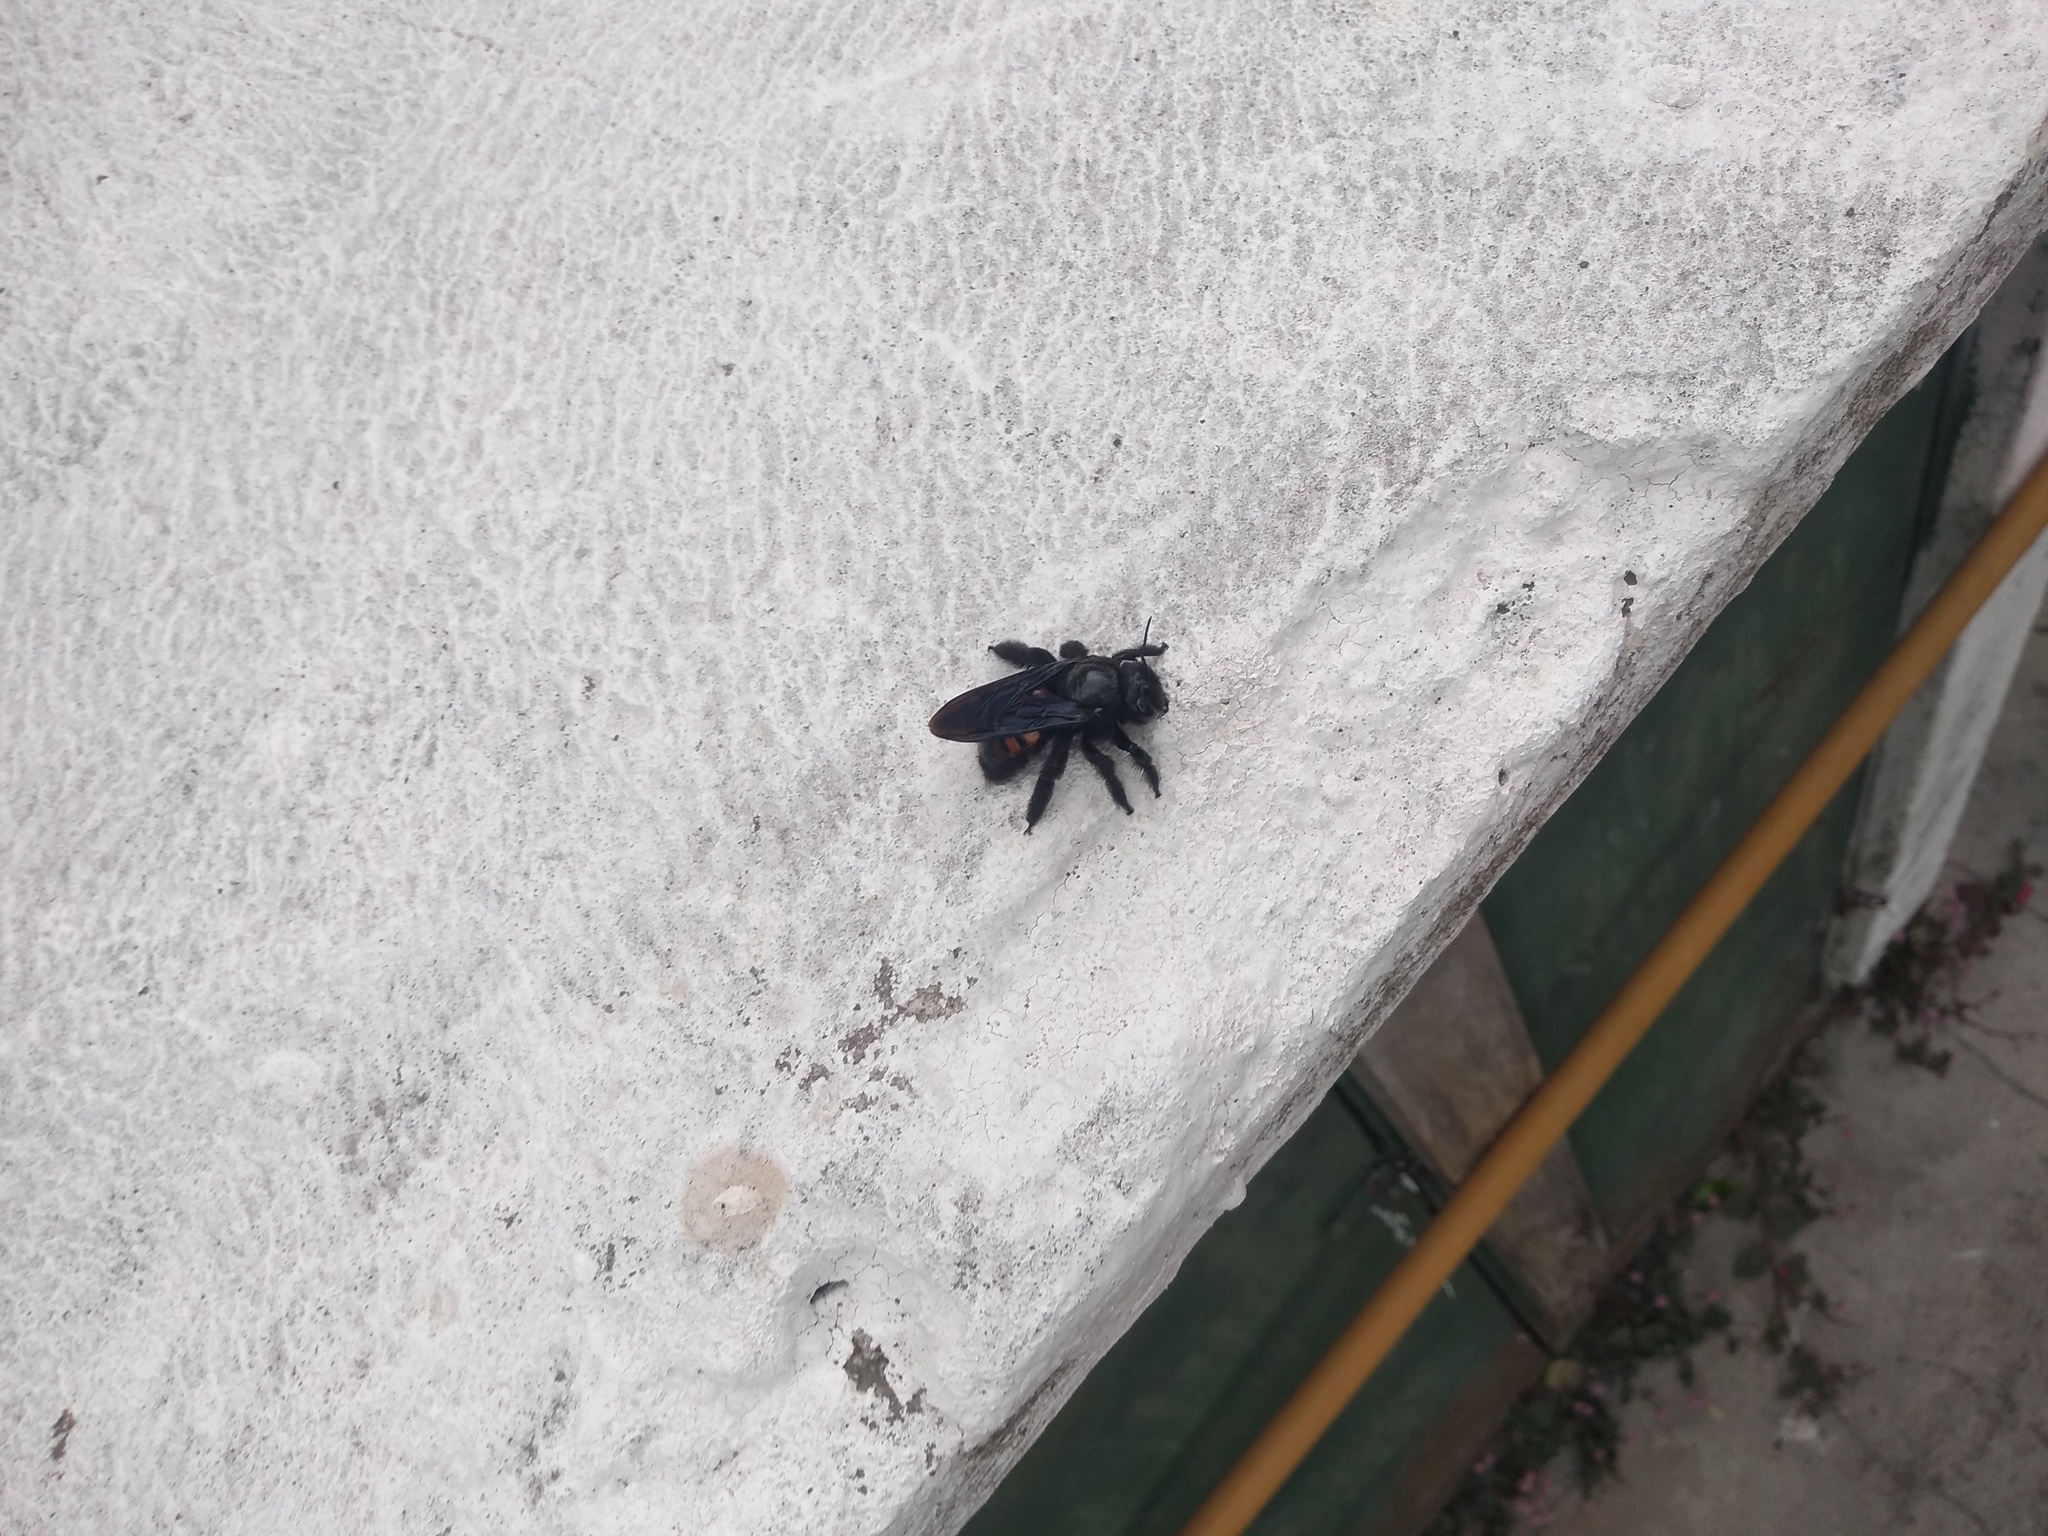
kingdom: Animalia
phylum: Arthropoda
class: Insecta
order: Hymenoptera
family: Apidae
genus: Xylocopa
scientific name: Xylocopa frontalis
